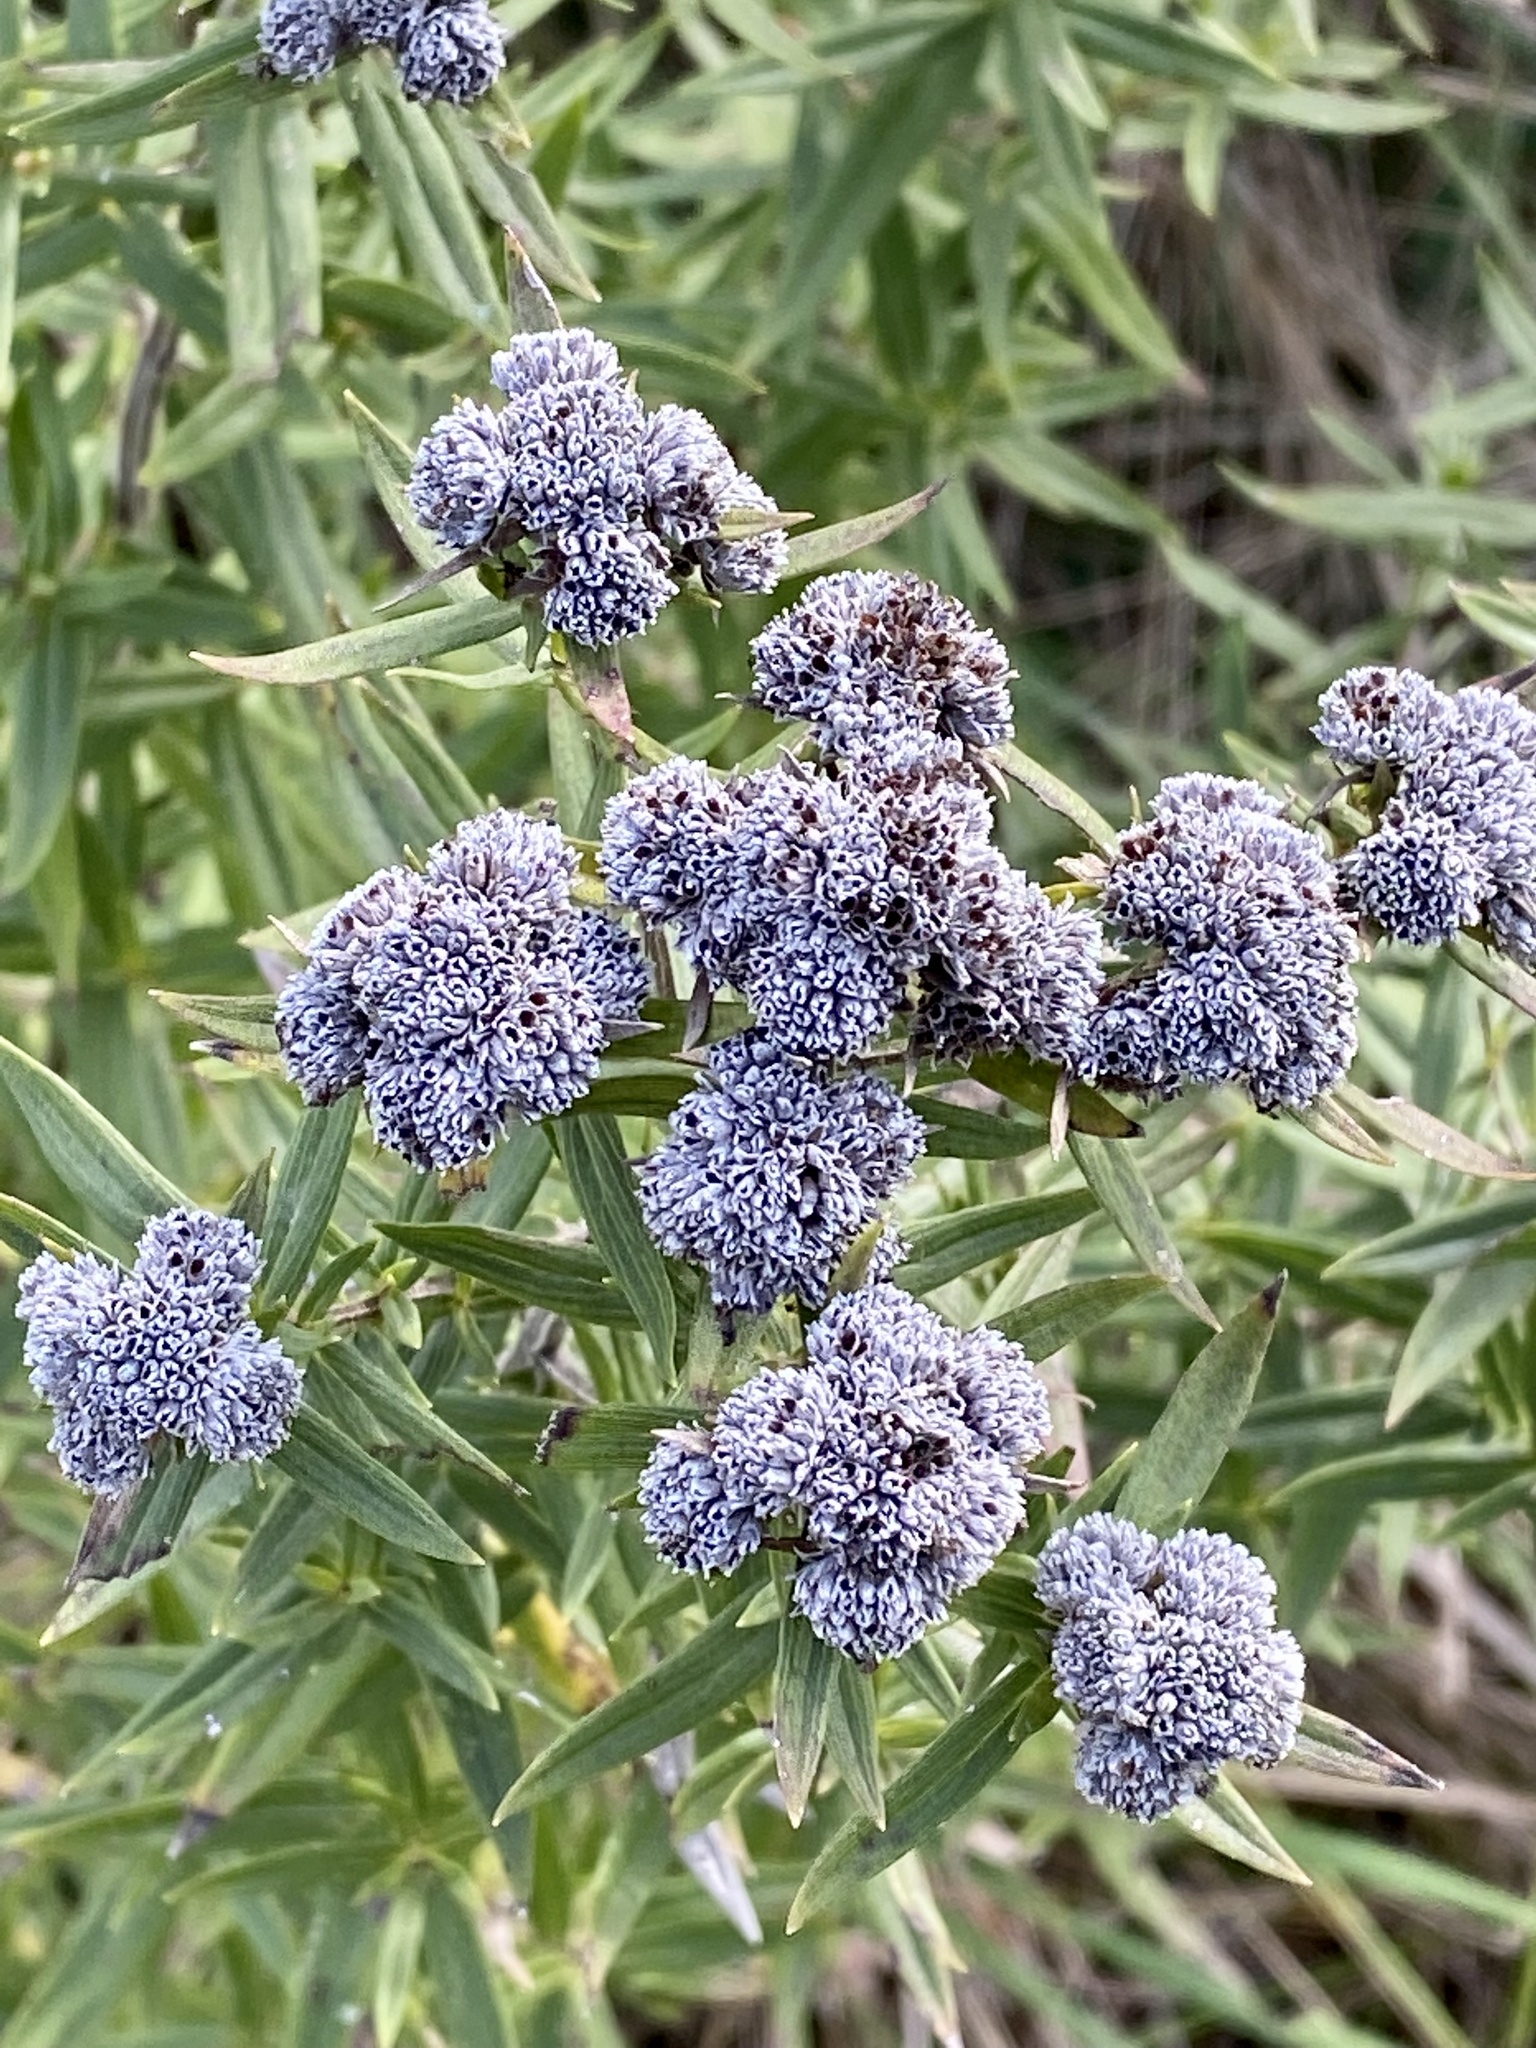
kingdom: Plantae
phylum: Tracheophyta
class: Magnoliopsida
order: Lamiales
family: Lamiaceae
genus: Pycnanthemum
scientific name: Pycnanthemum virginianum
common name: Virginia mountain-mint
